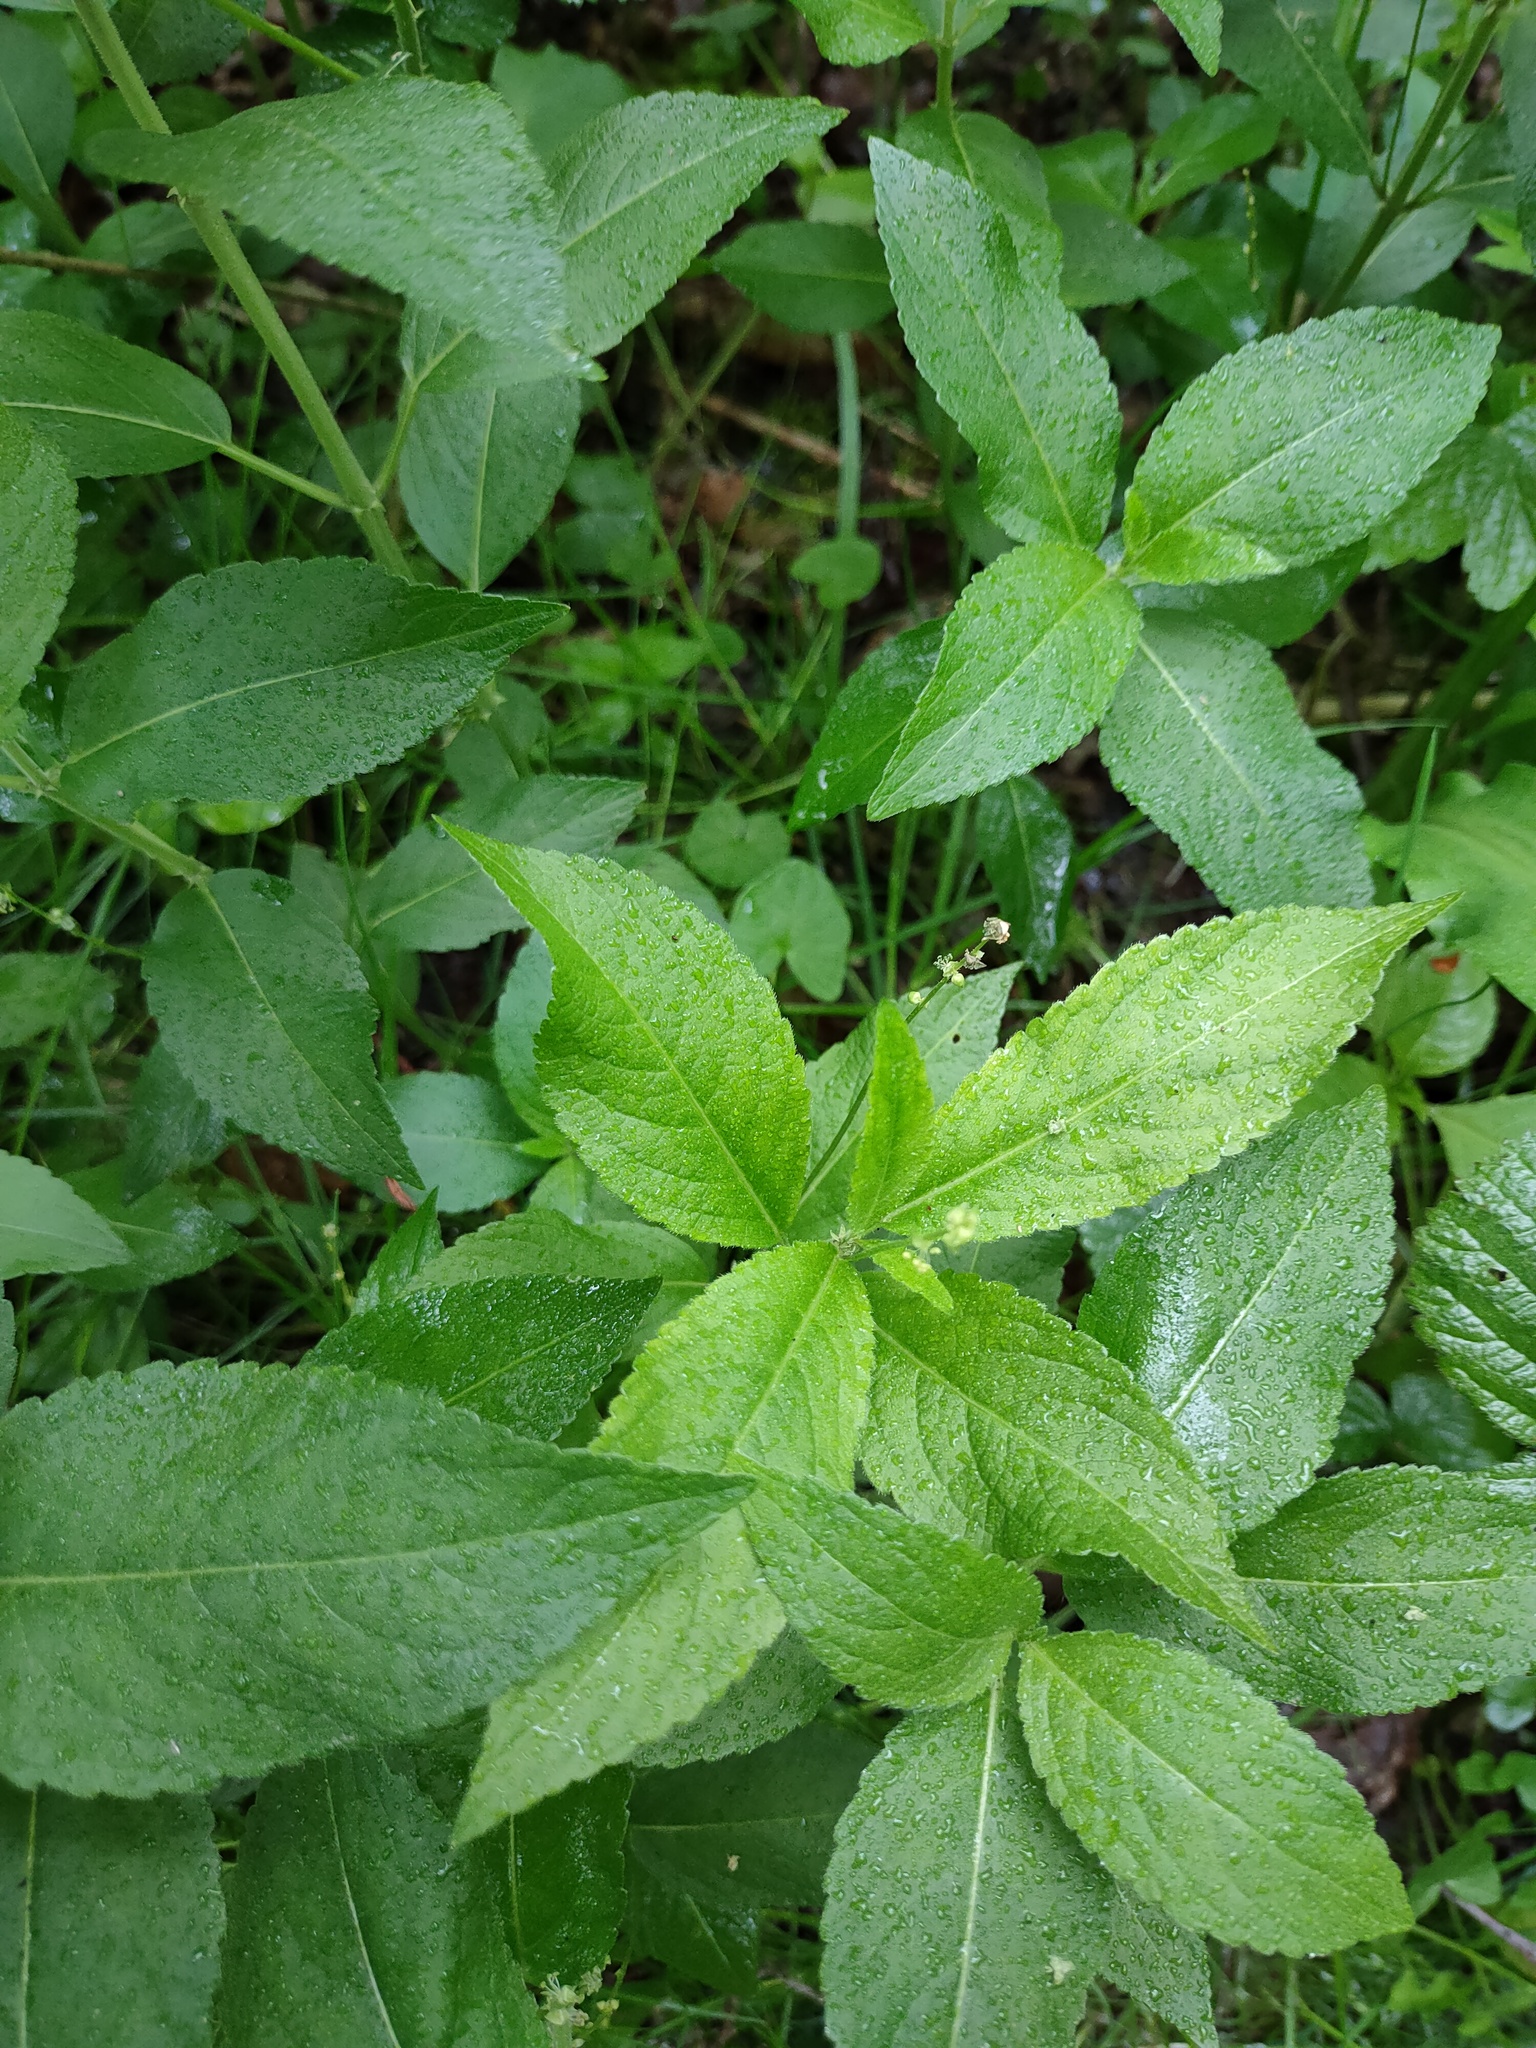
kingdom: Plantae
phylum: Tracheophyta
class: Magnoliopsida
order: Malpighiales
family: Euphorbiaceae
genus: Mercurialis
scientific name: Mercurialis perennis
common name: Dog mercury
